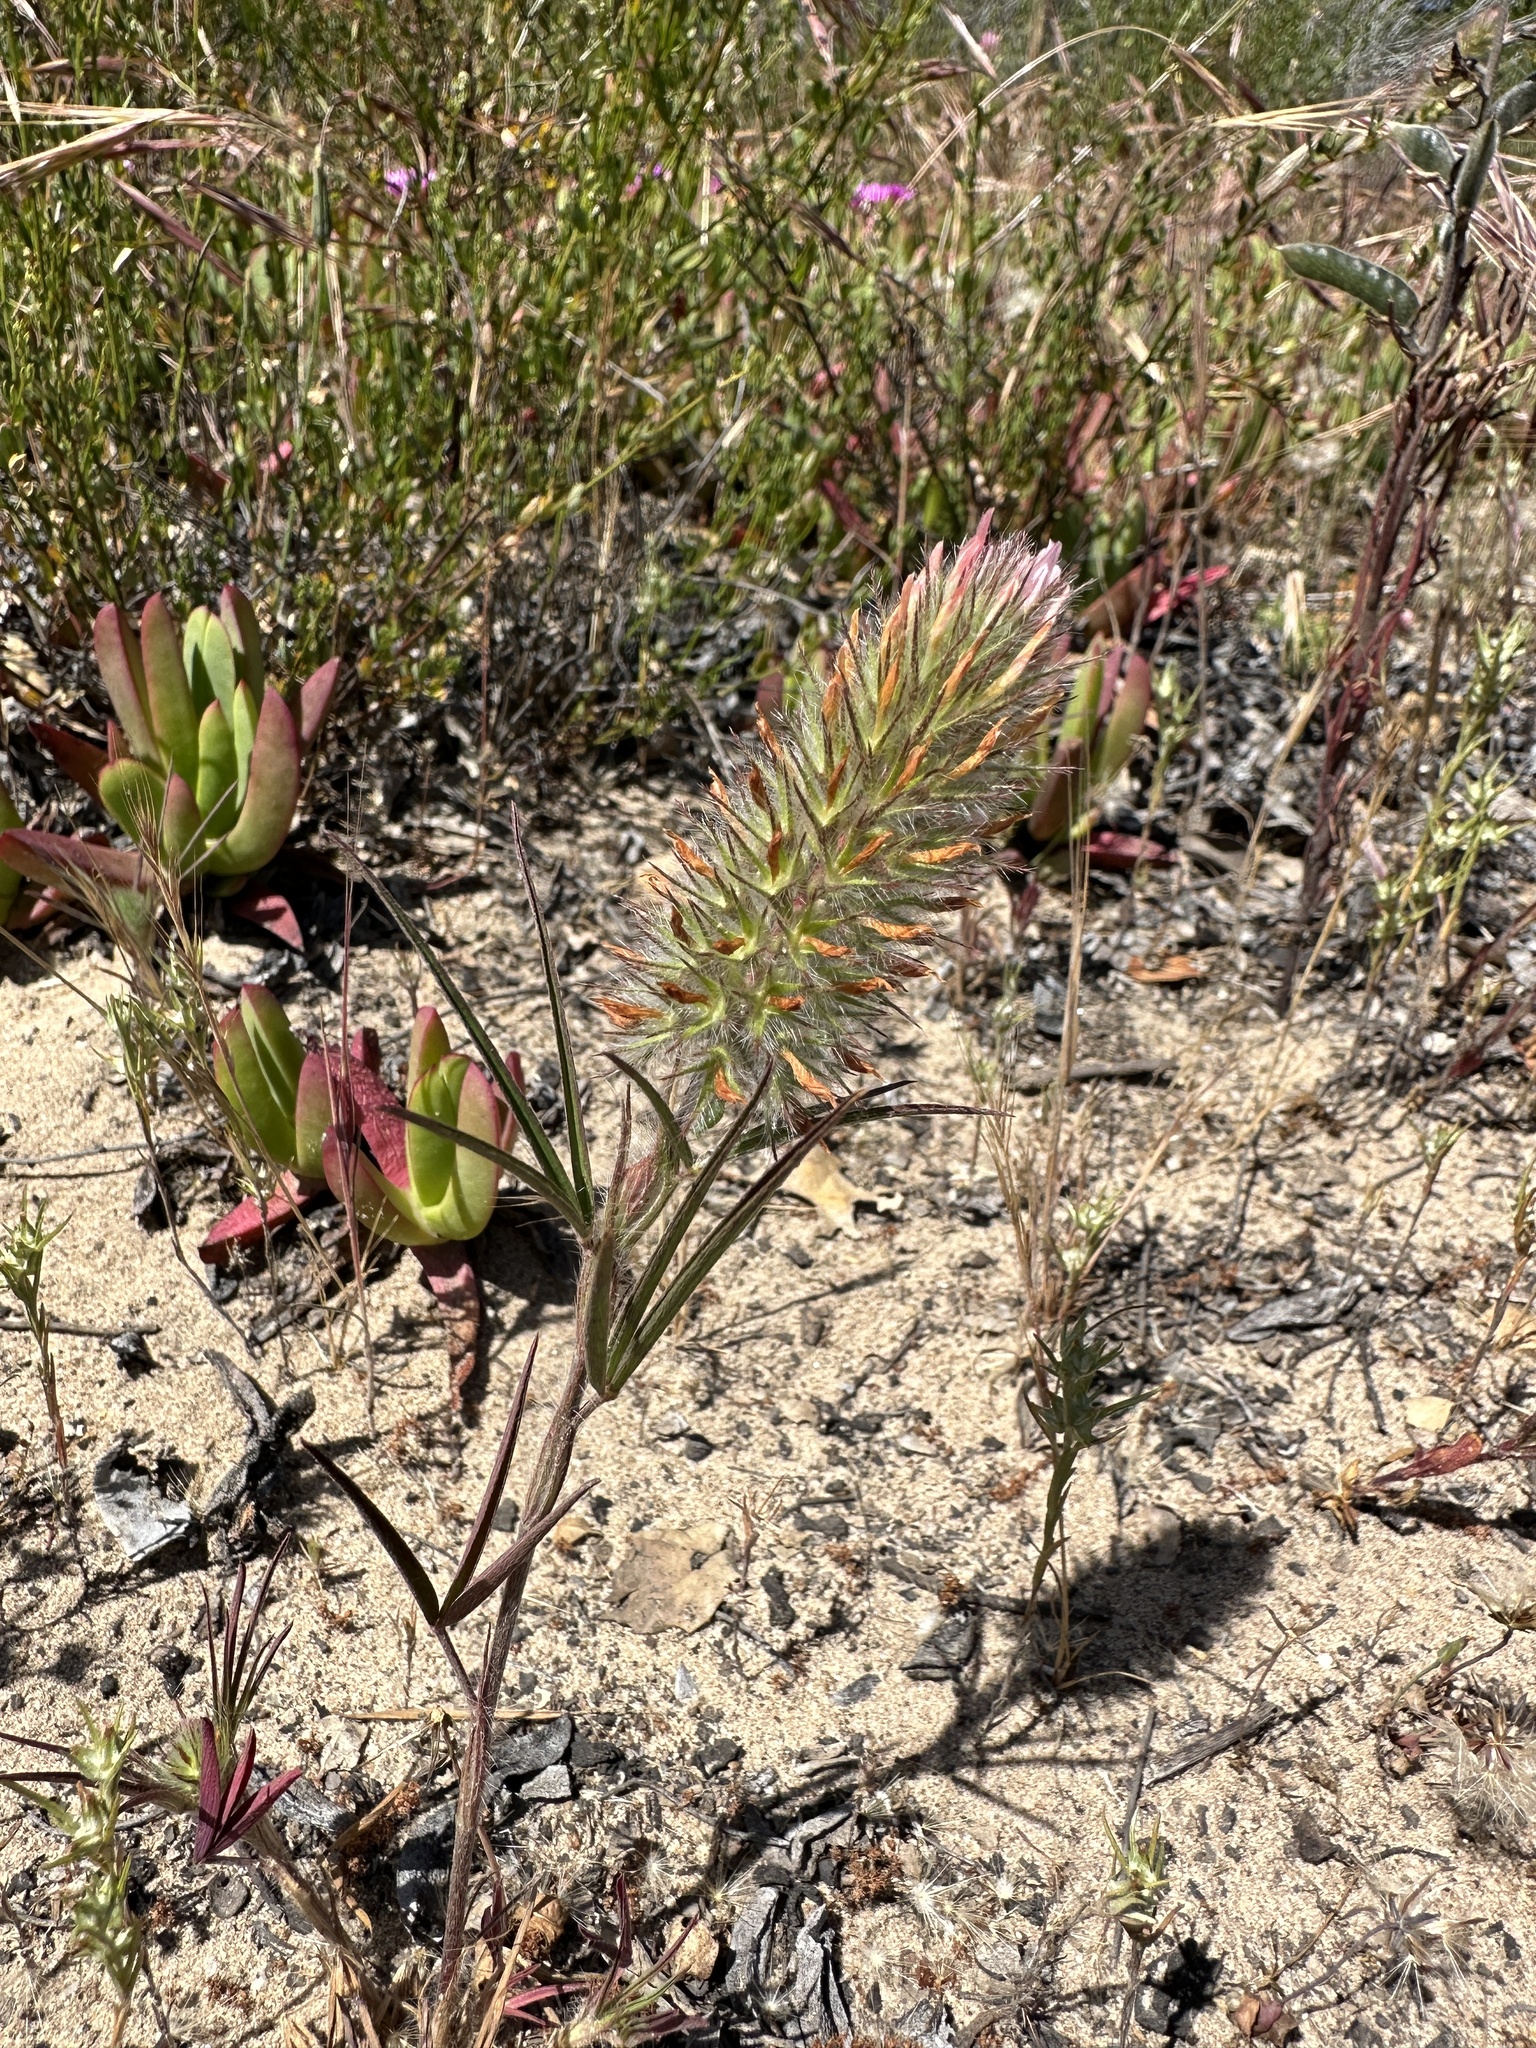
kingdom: Plantae
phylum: Tracheophyta
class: Magnoliopsida
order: Fabales
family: Fabaceae
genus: Trifolium
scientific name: Trifolium angustifolium
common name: Narrow clover
